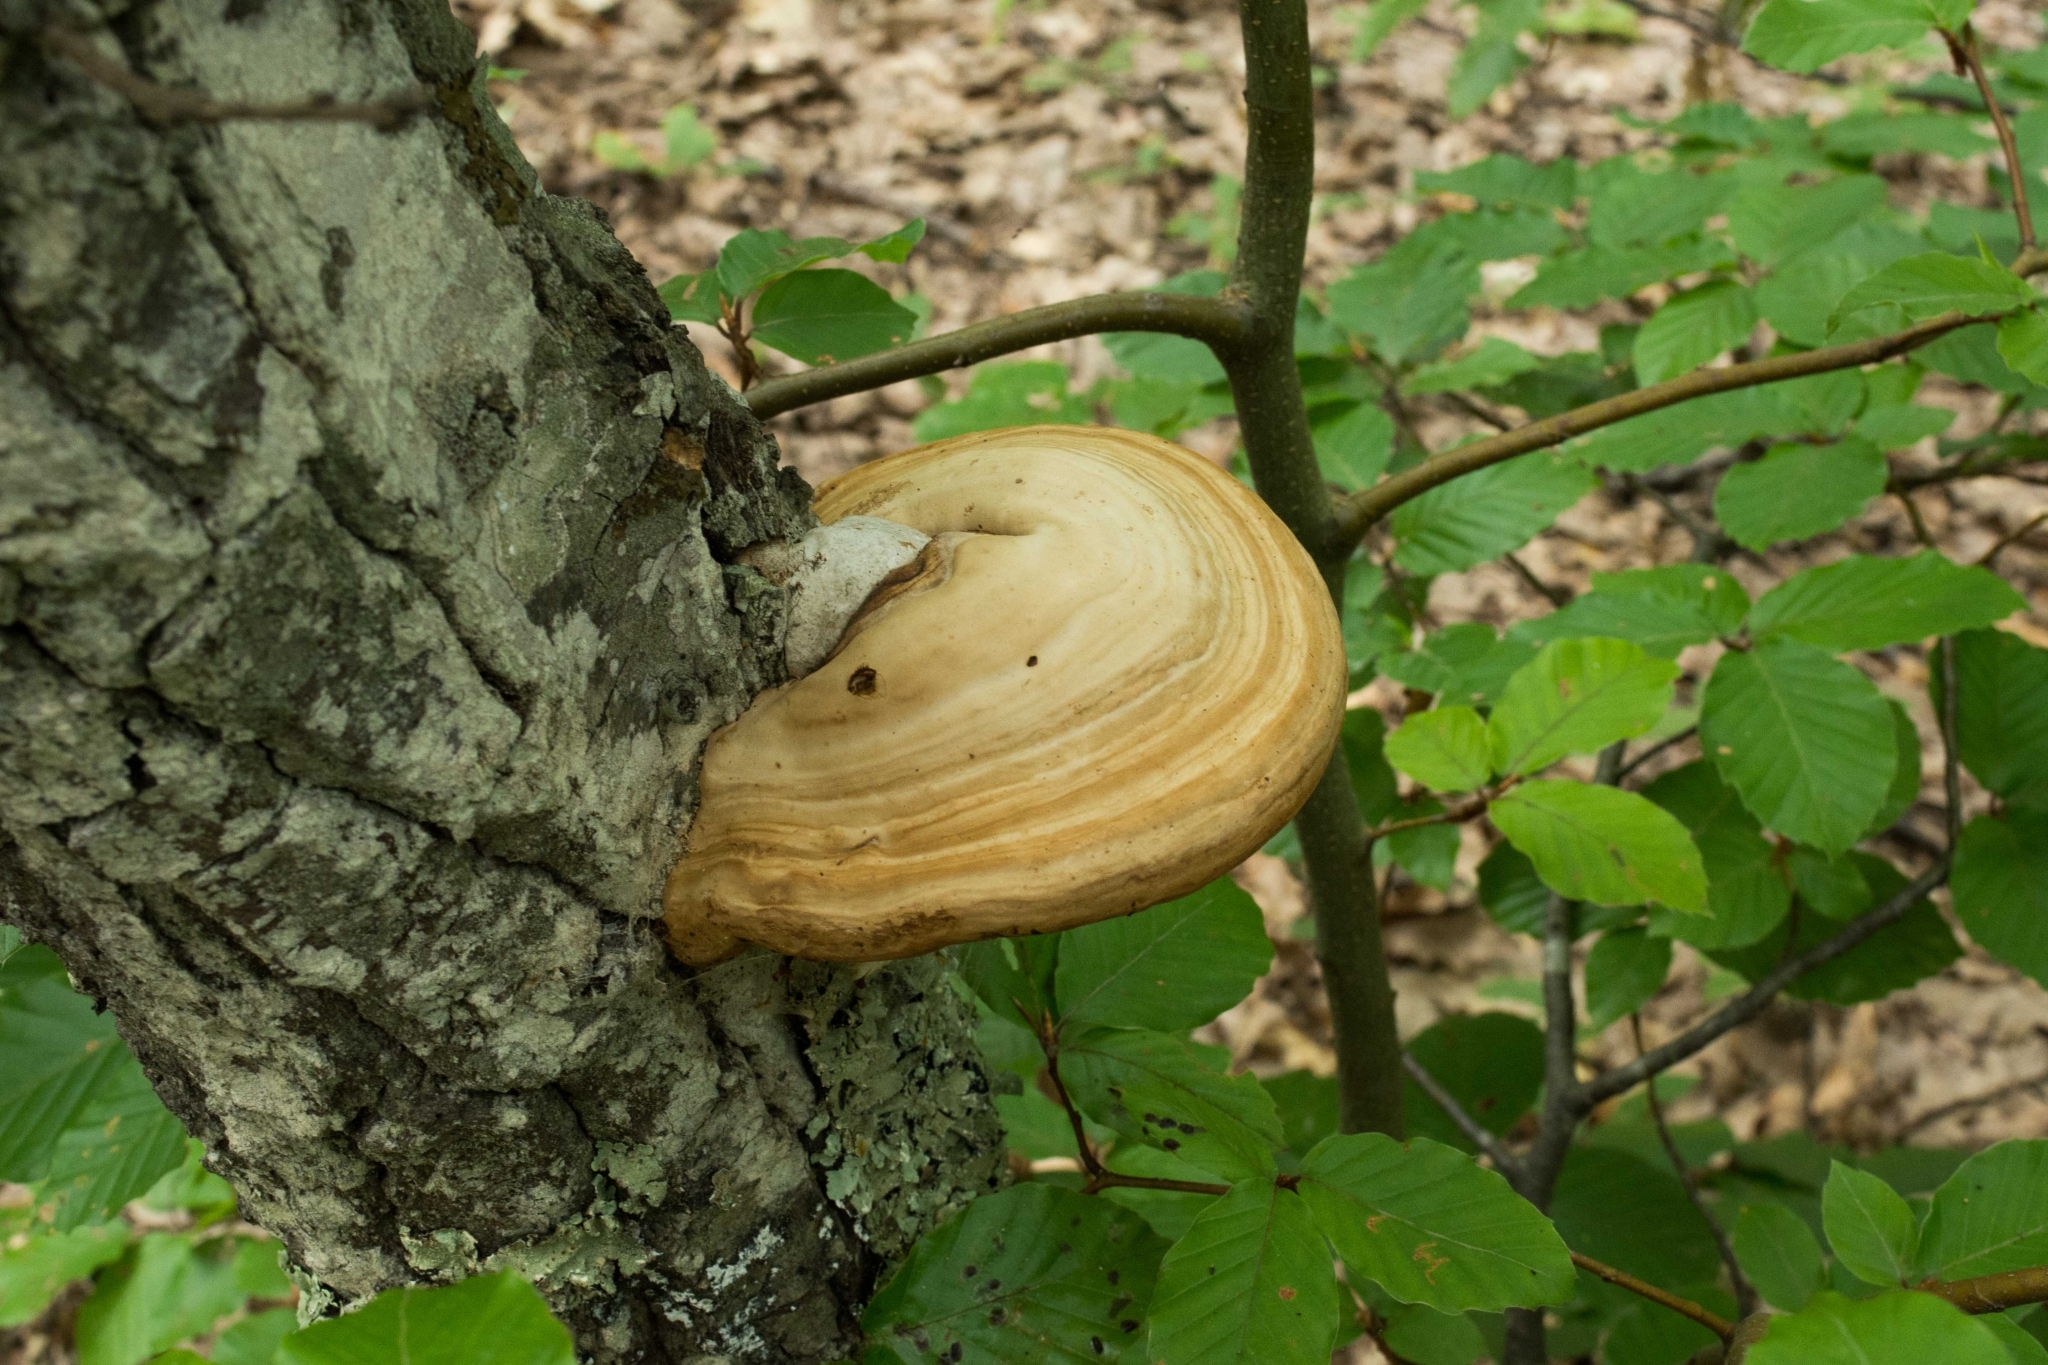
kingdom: Fungi
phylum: Basidiomycota
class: Agaricomycetes
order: Polyporales
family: Polyporaceae
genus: Fomes
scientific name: Fomes fomentarius
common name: Hoof fungus
